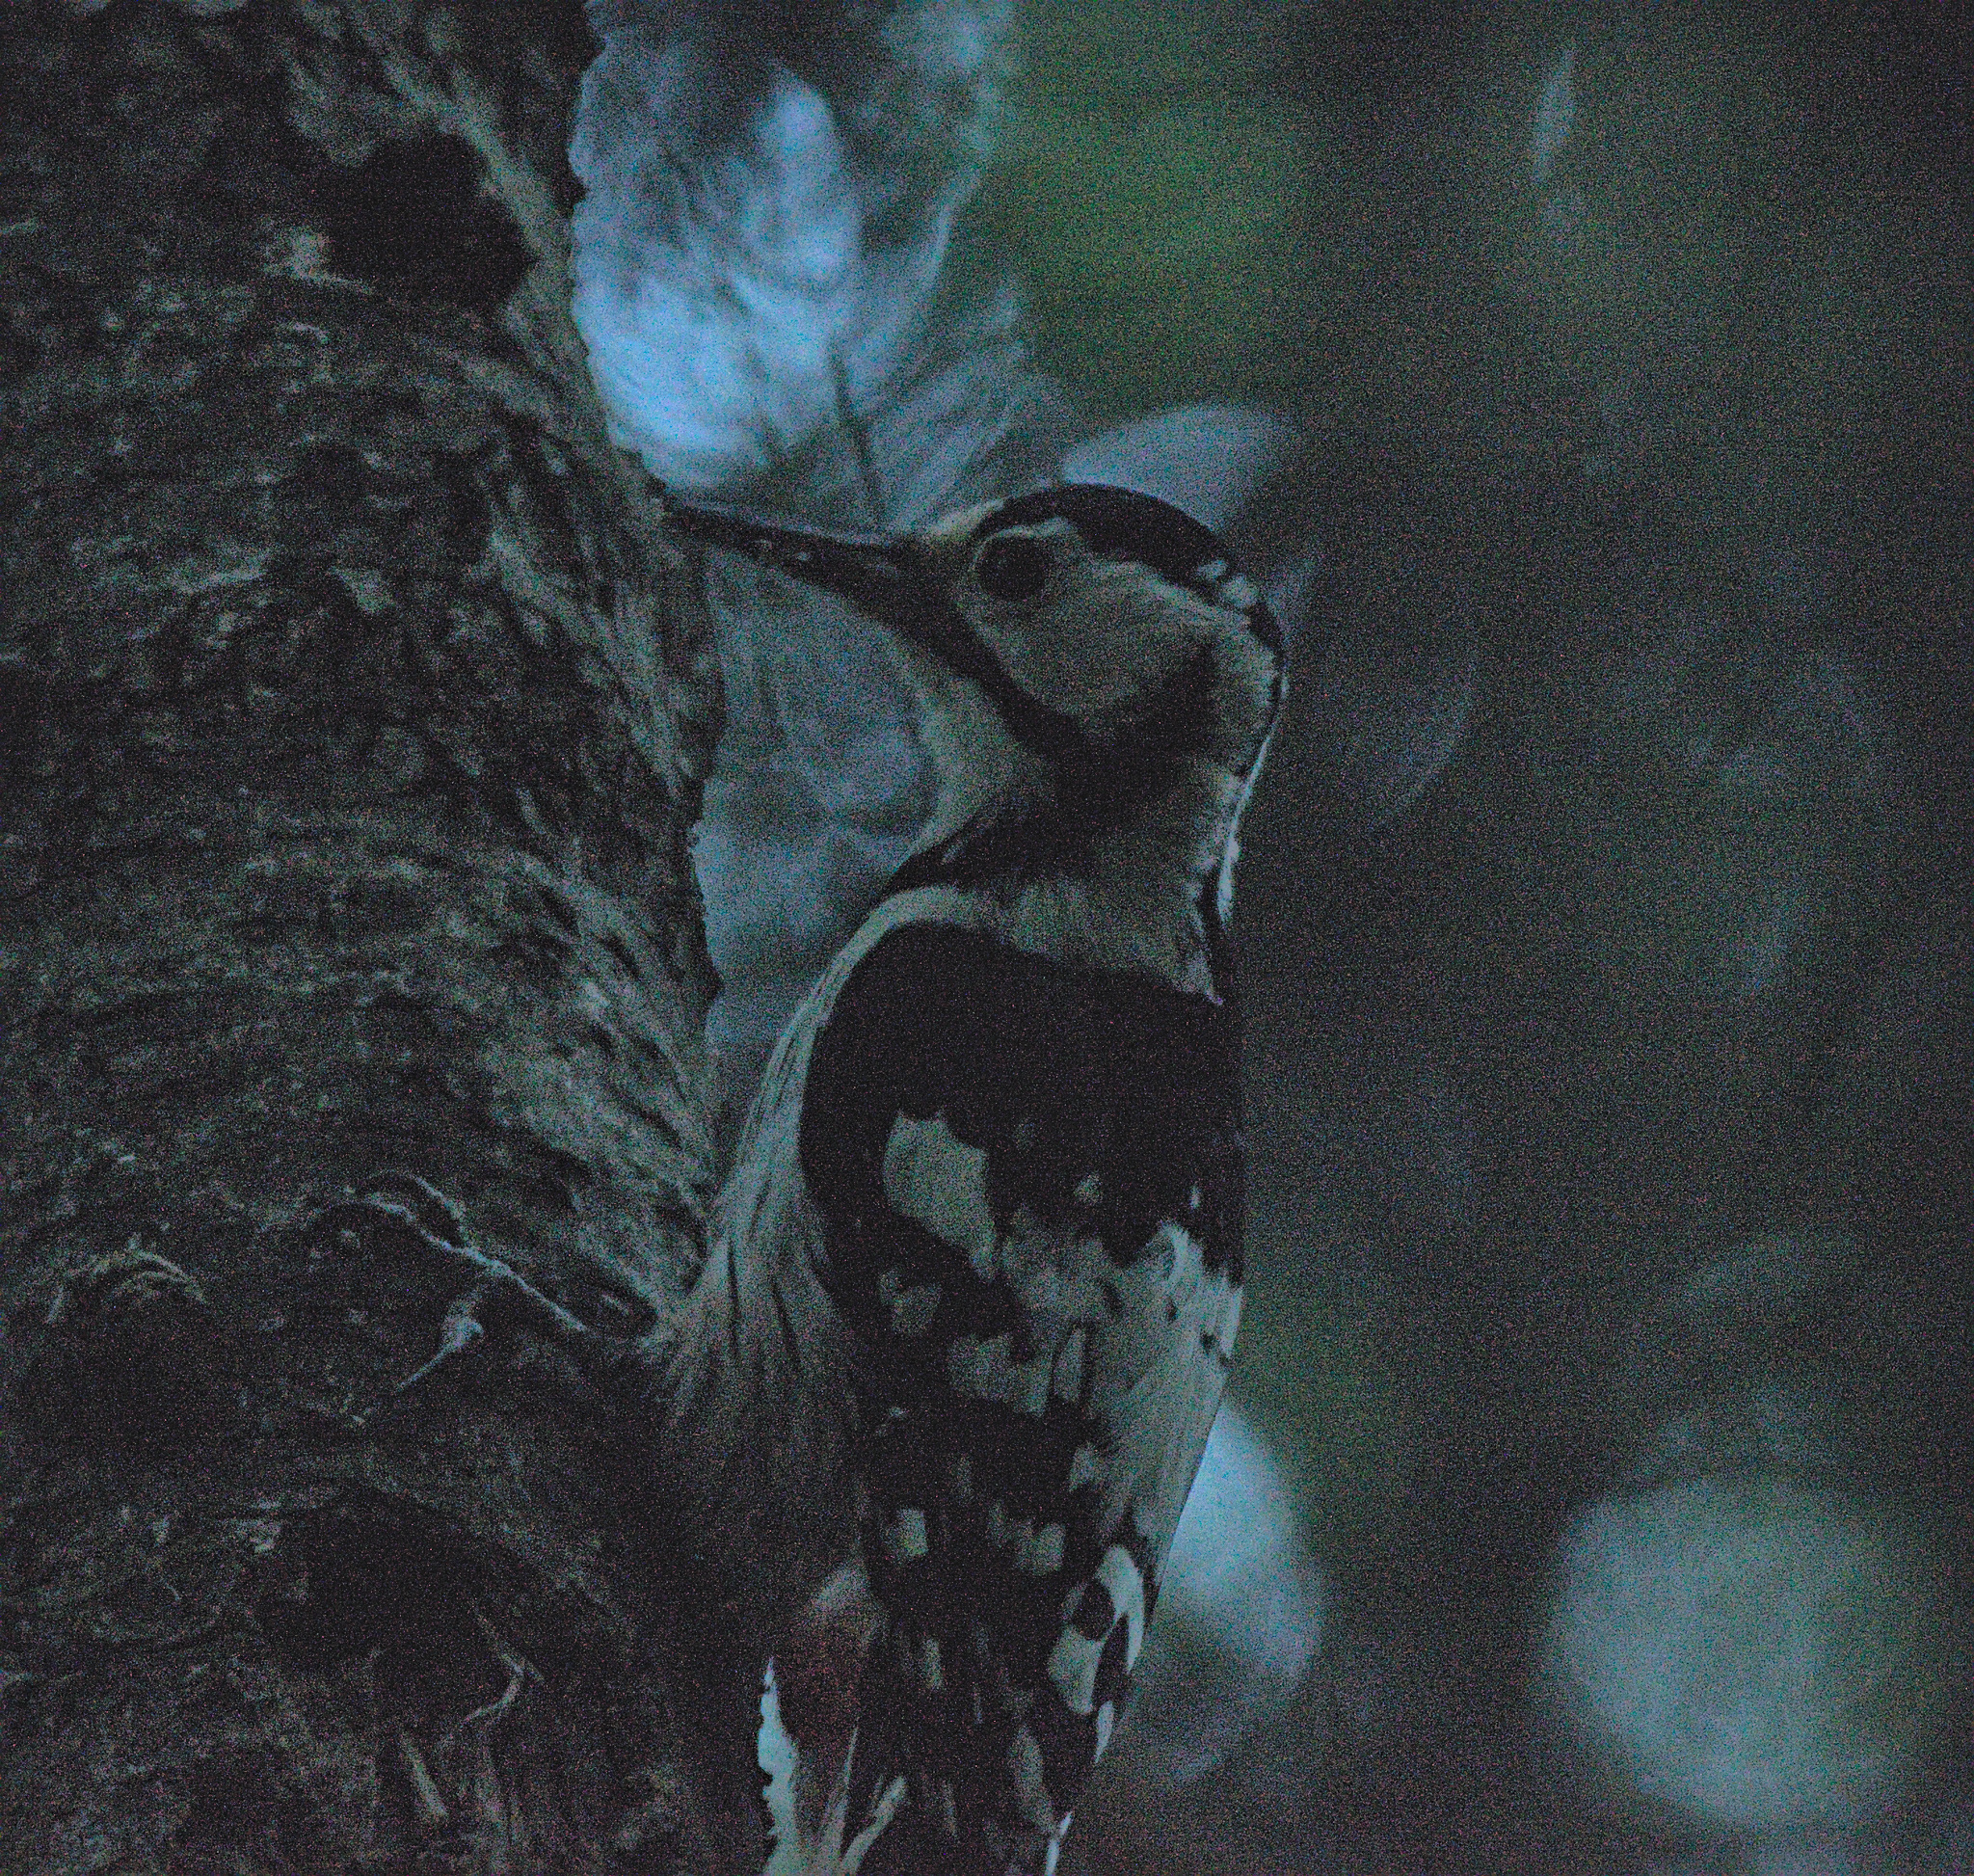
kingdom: Animalia
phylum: Chordata
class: Aves
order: Piciformes
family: Picidae
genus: Dendrocopos
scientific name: Dendrocopos leucotos
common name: White-backed woodpecker
